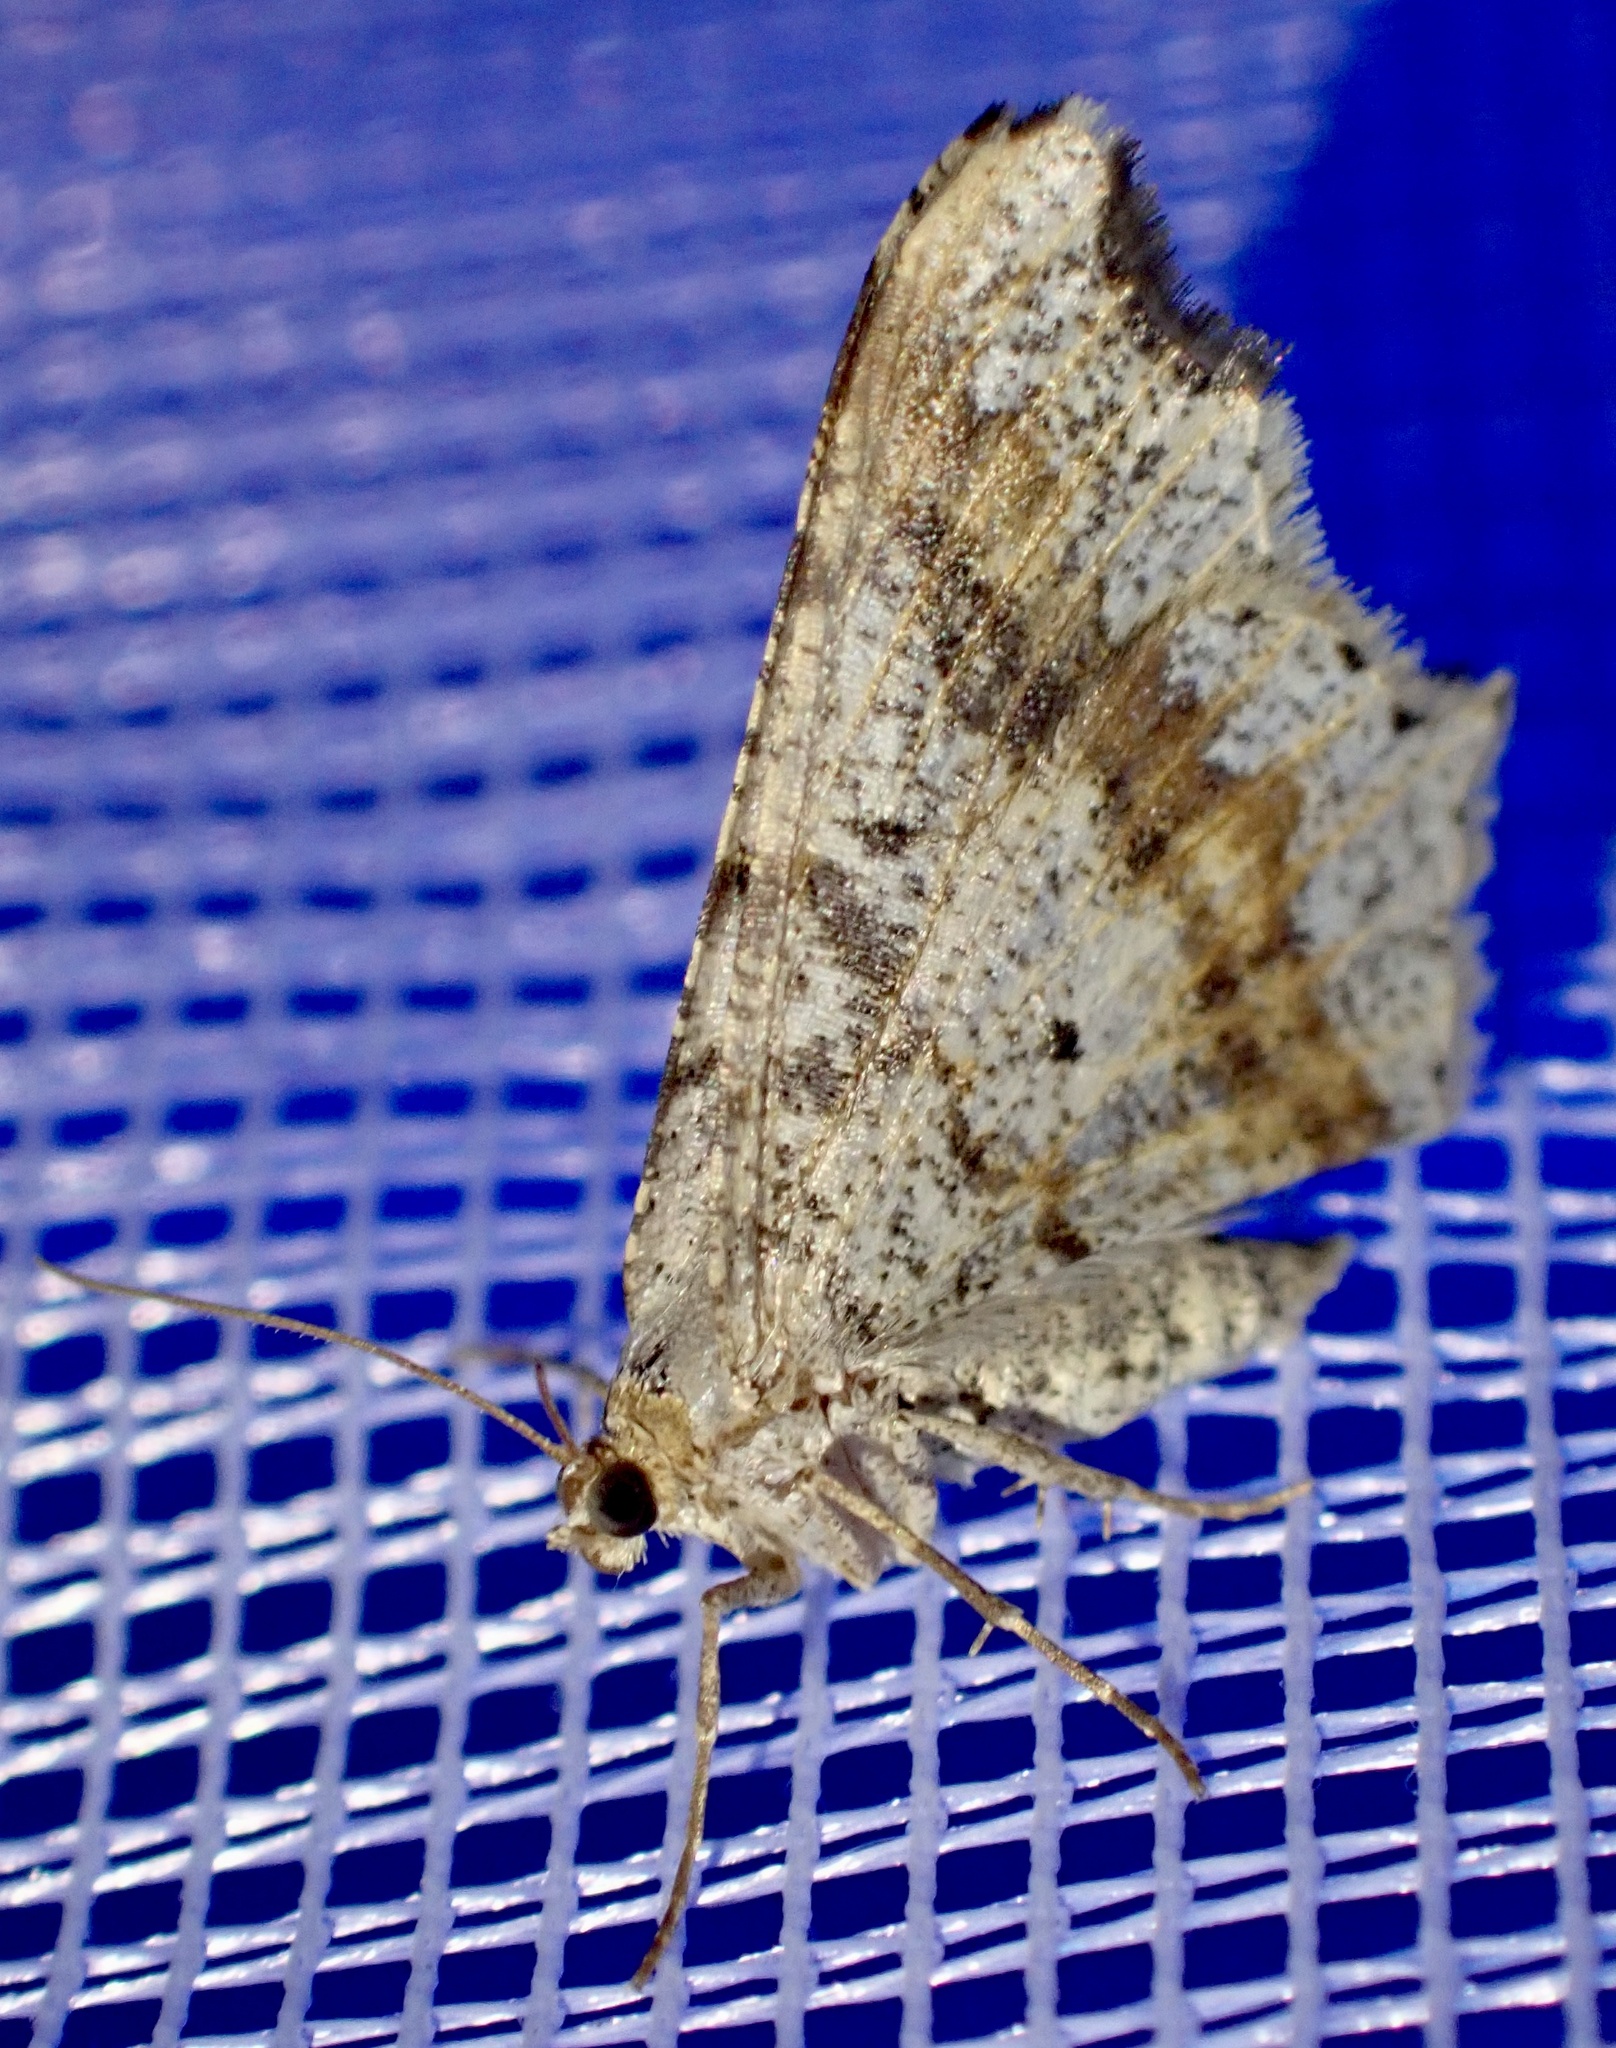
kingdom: Animalia
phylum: Arthropoda
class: Insecta
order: Lepidoptera
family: Geometridae
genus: Macaria
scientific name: Macaria alternata
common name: Sharp-angled peacock
